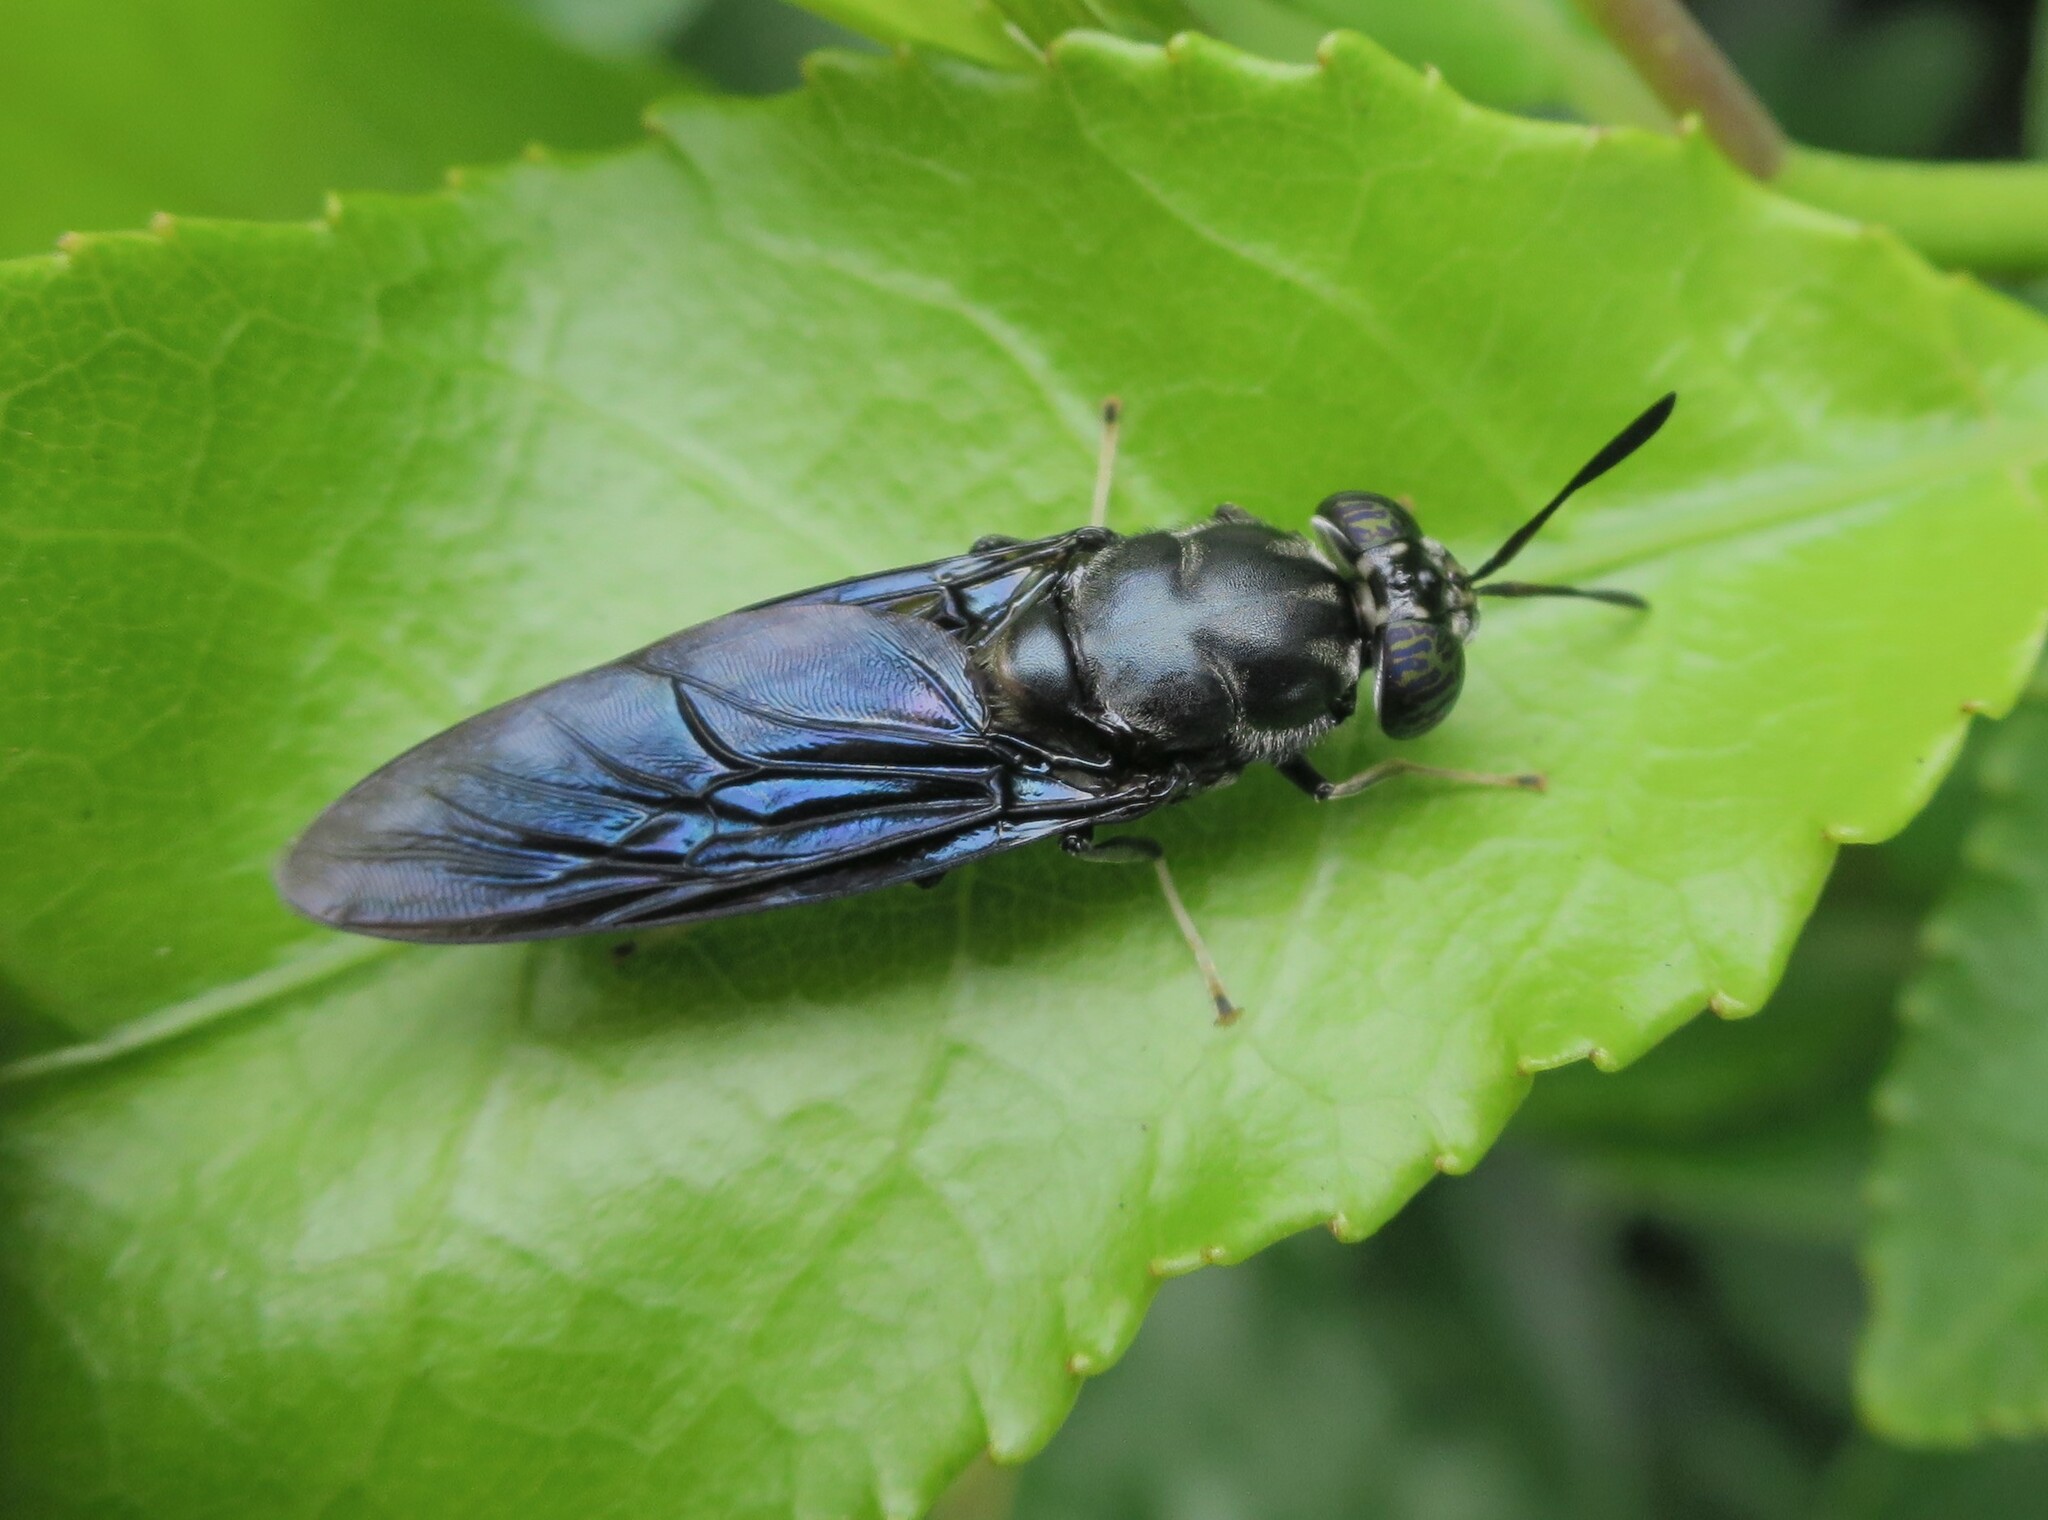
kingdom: Animalia
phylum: Arthropoda
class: Insecta
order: Diptera
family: Stratiomyidae
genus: Hermetia
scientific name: Hermetia illucens
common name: Black soldier fly
